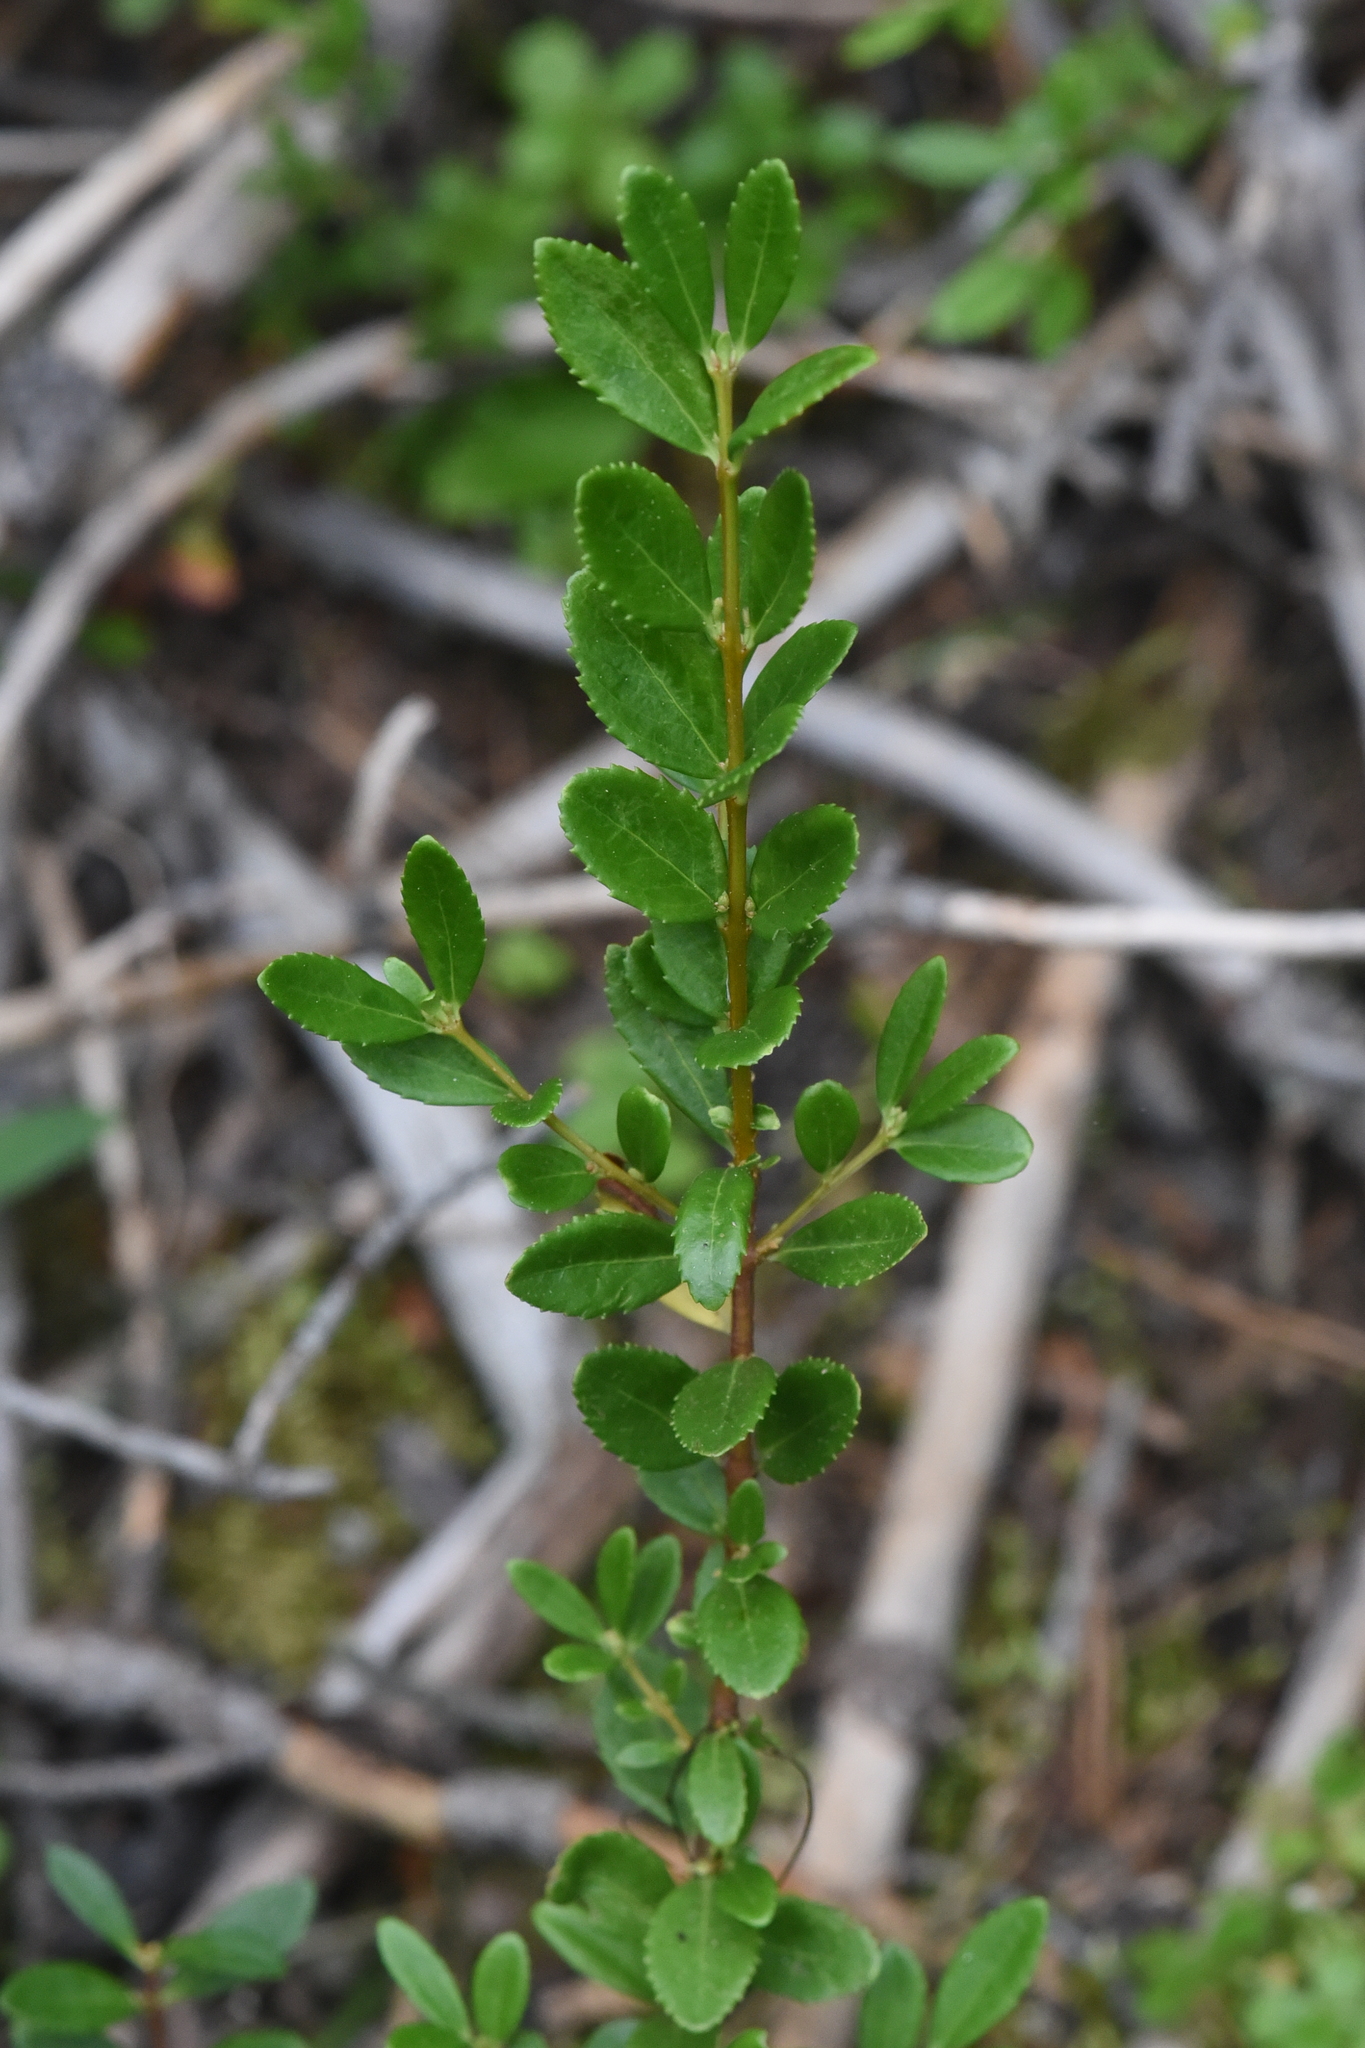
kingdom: Plantae
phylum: Tracheophyta
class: Magnoliopsida
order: Celastrales
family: Celastraceae
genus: Paxistima
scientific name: Paxistima myrsinites
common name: Mountain-lover
